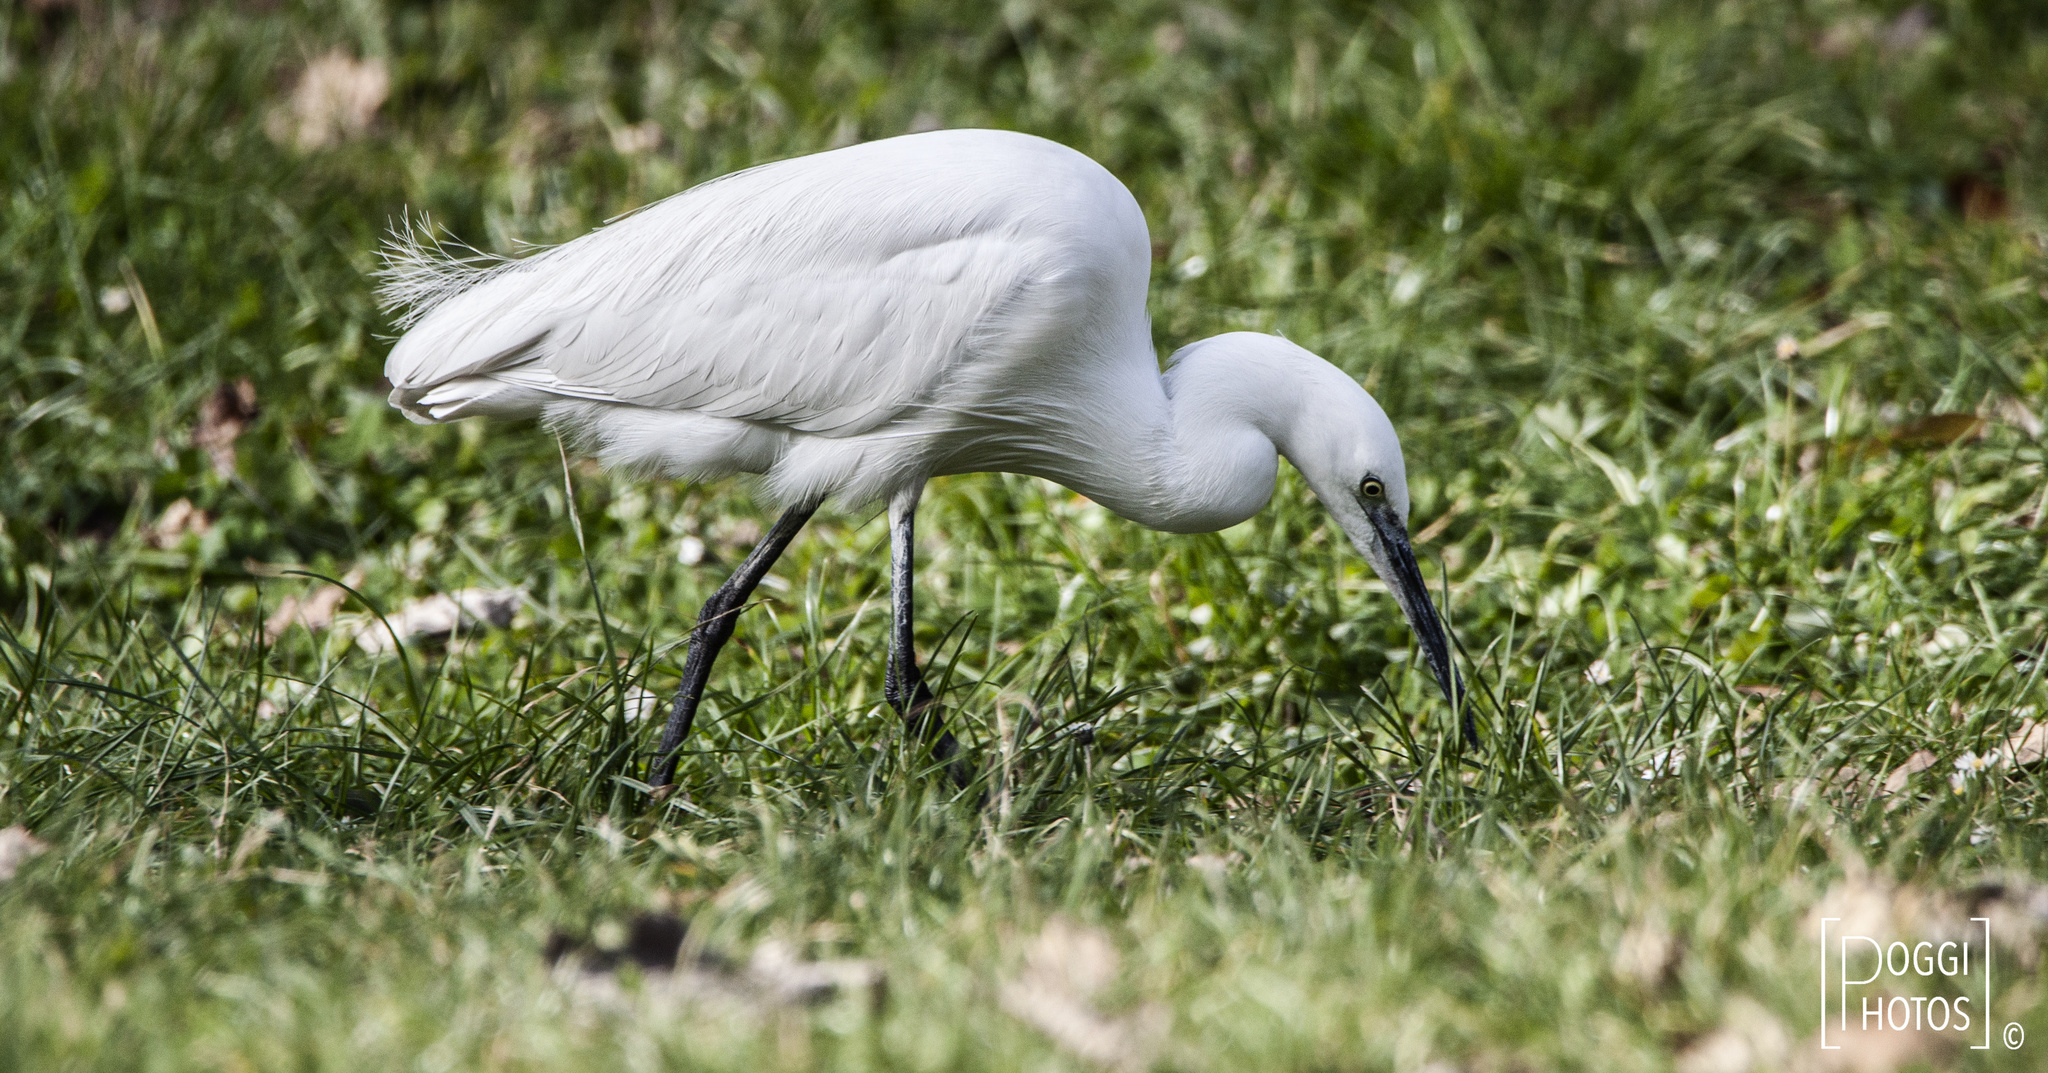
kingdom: Animalia
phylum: Chordata
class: Aves
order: Pelecaniformes
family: Ardeidae
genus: Egretta
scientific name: Egretta garzetta
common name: Little egret
